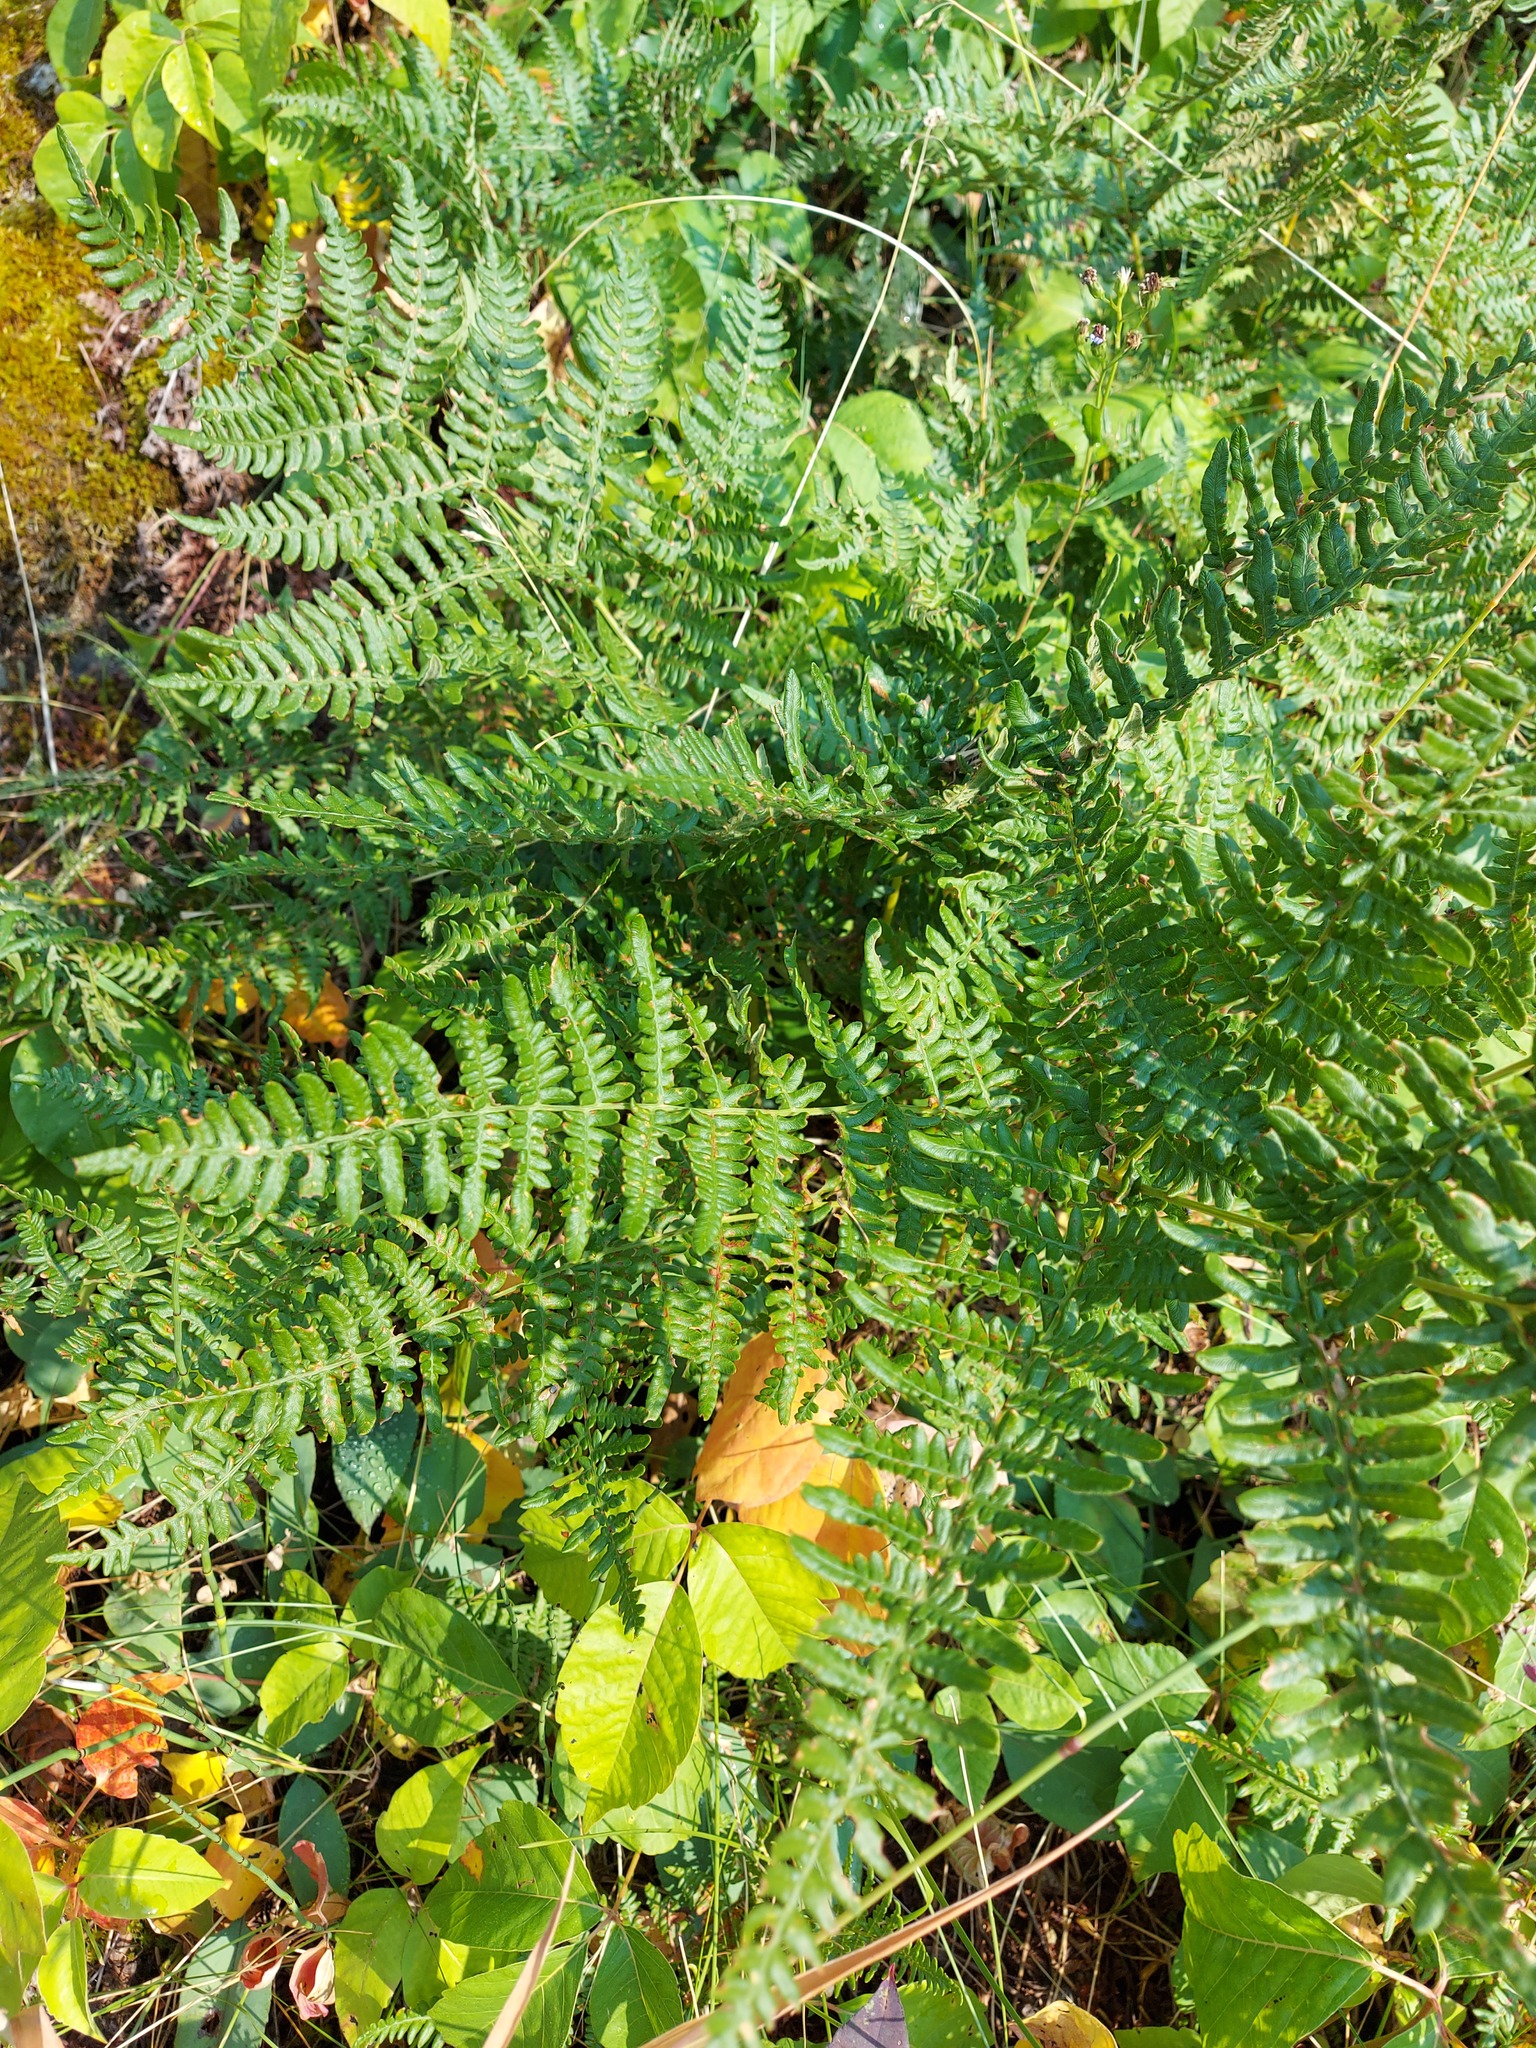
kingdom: Plantae
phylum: Tracheophyta
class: Polypodiopsida
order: Polypodiales
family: Dennstaedtiaceae
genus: Pteridium
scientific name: Pteridium aquilinum
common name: Bracken
